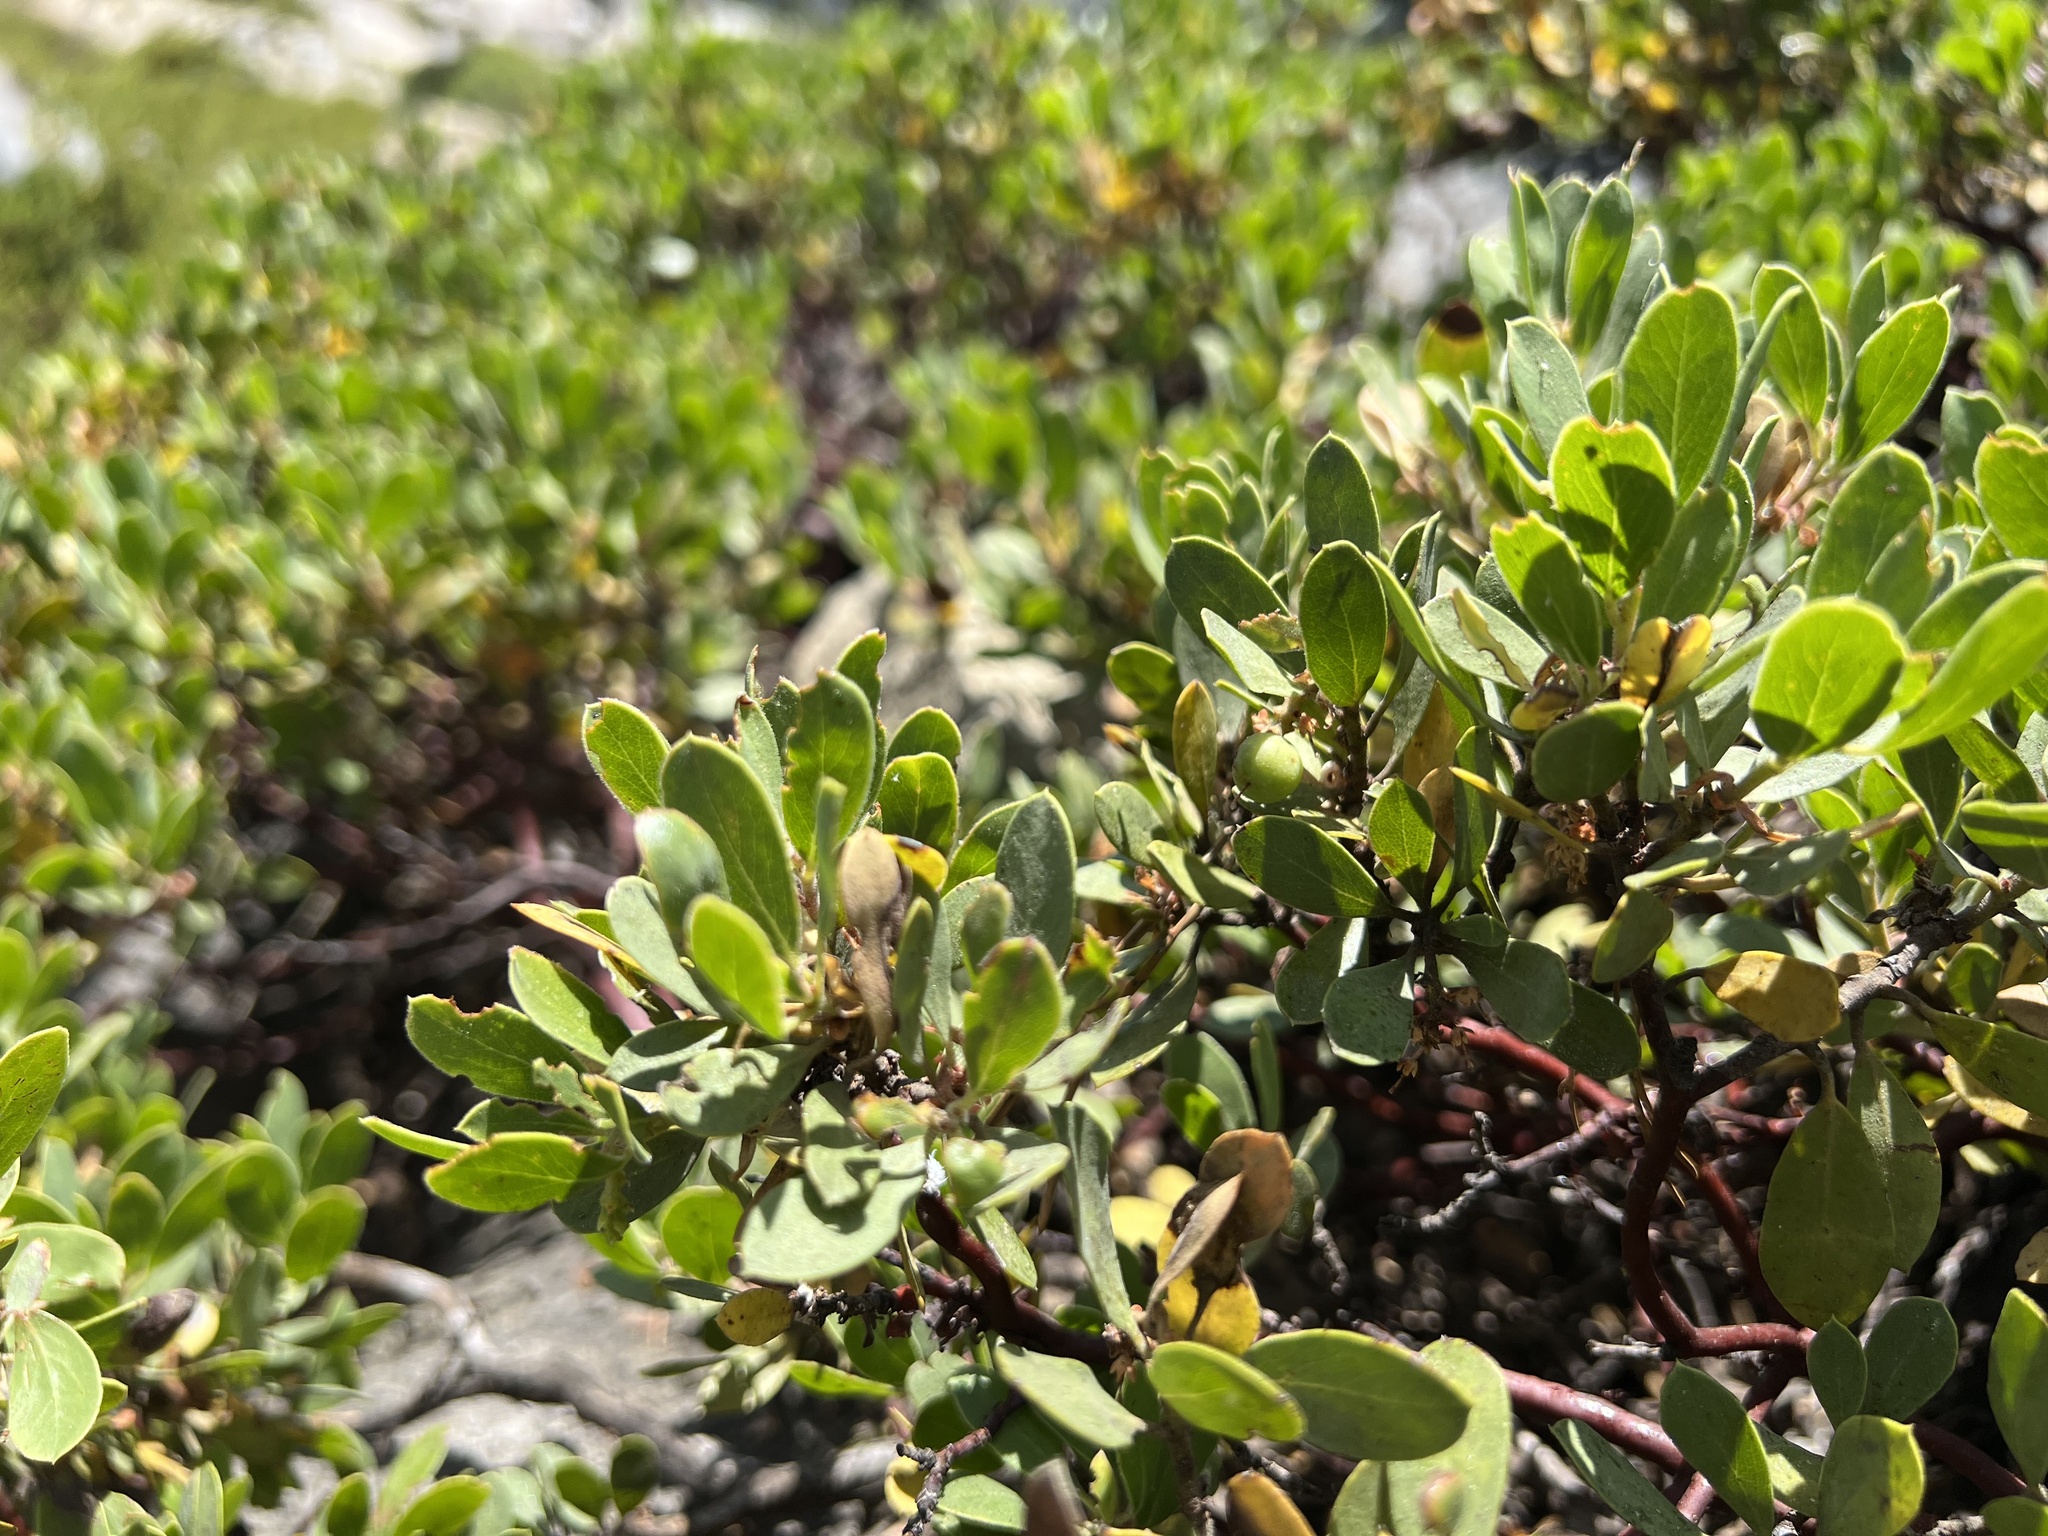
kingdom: Plantae
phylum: Tracheophyta
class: Magnoliopsida
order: Ericales
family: Ericaceae
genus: Arctostaphylos
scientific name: Arctostaphylos nevadensis
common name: Pinemat manzanita
